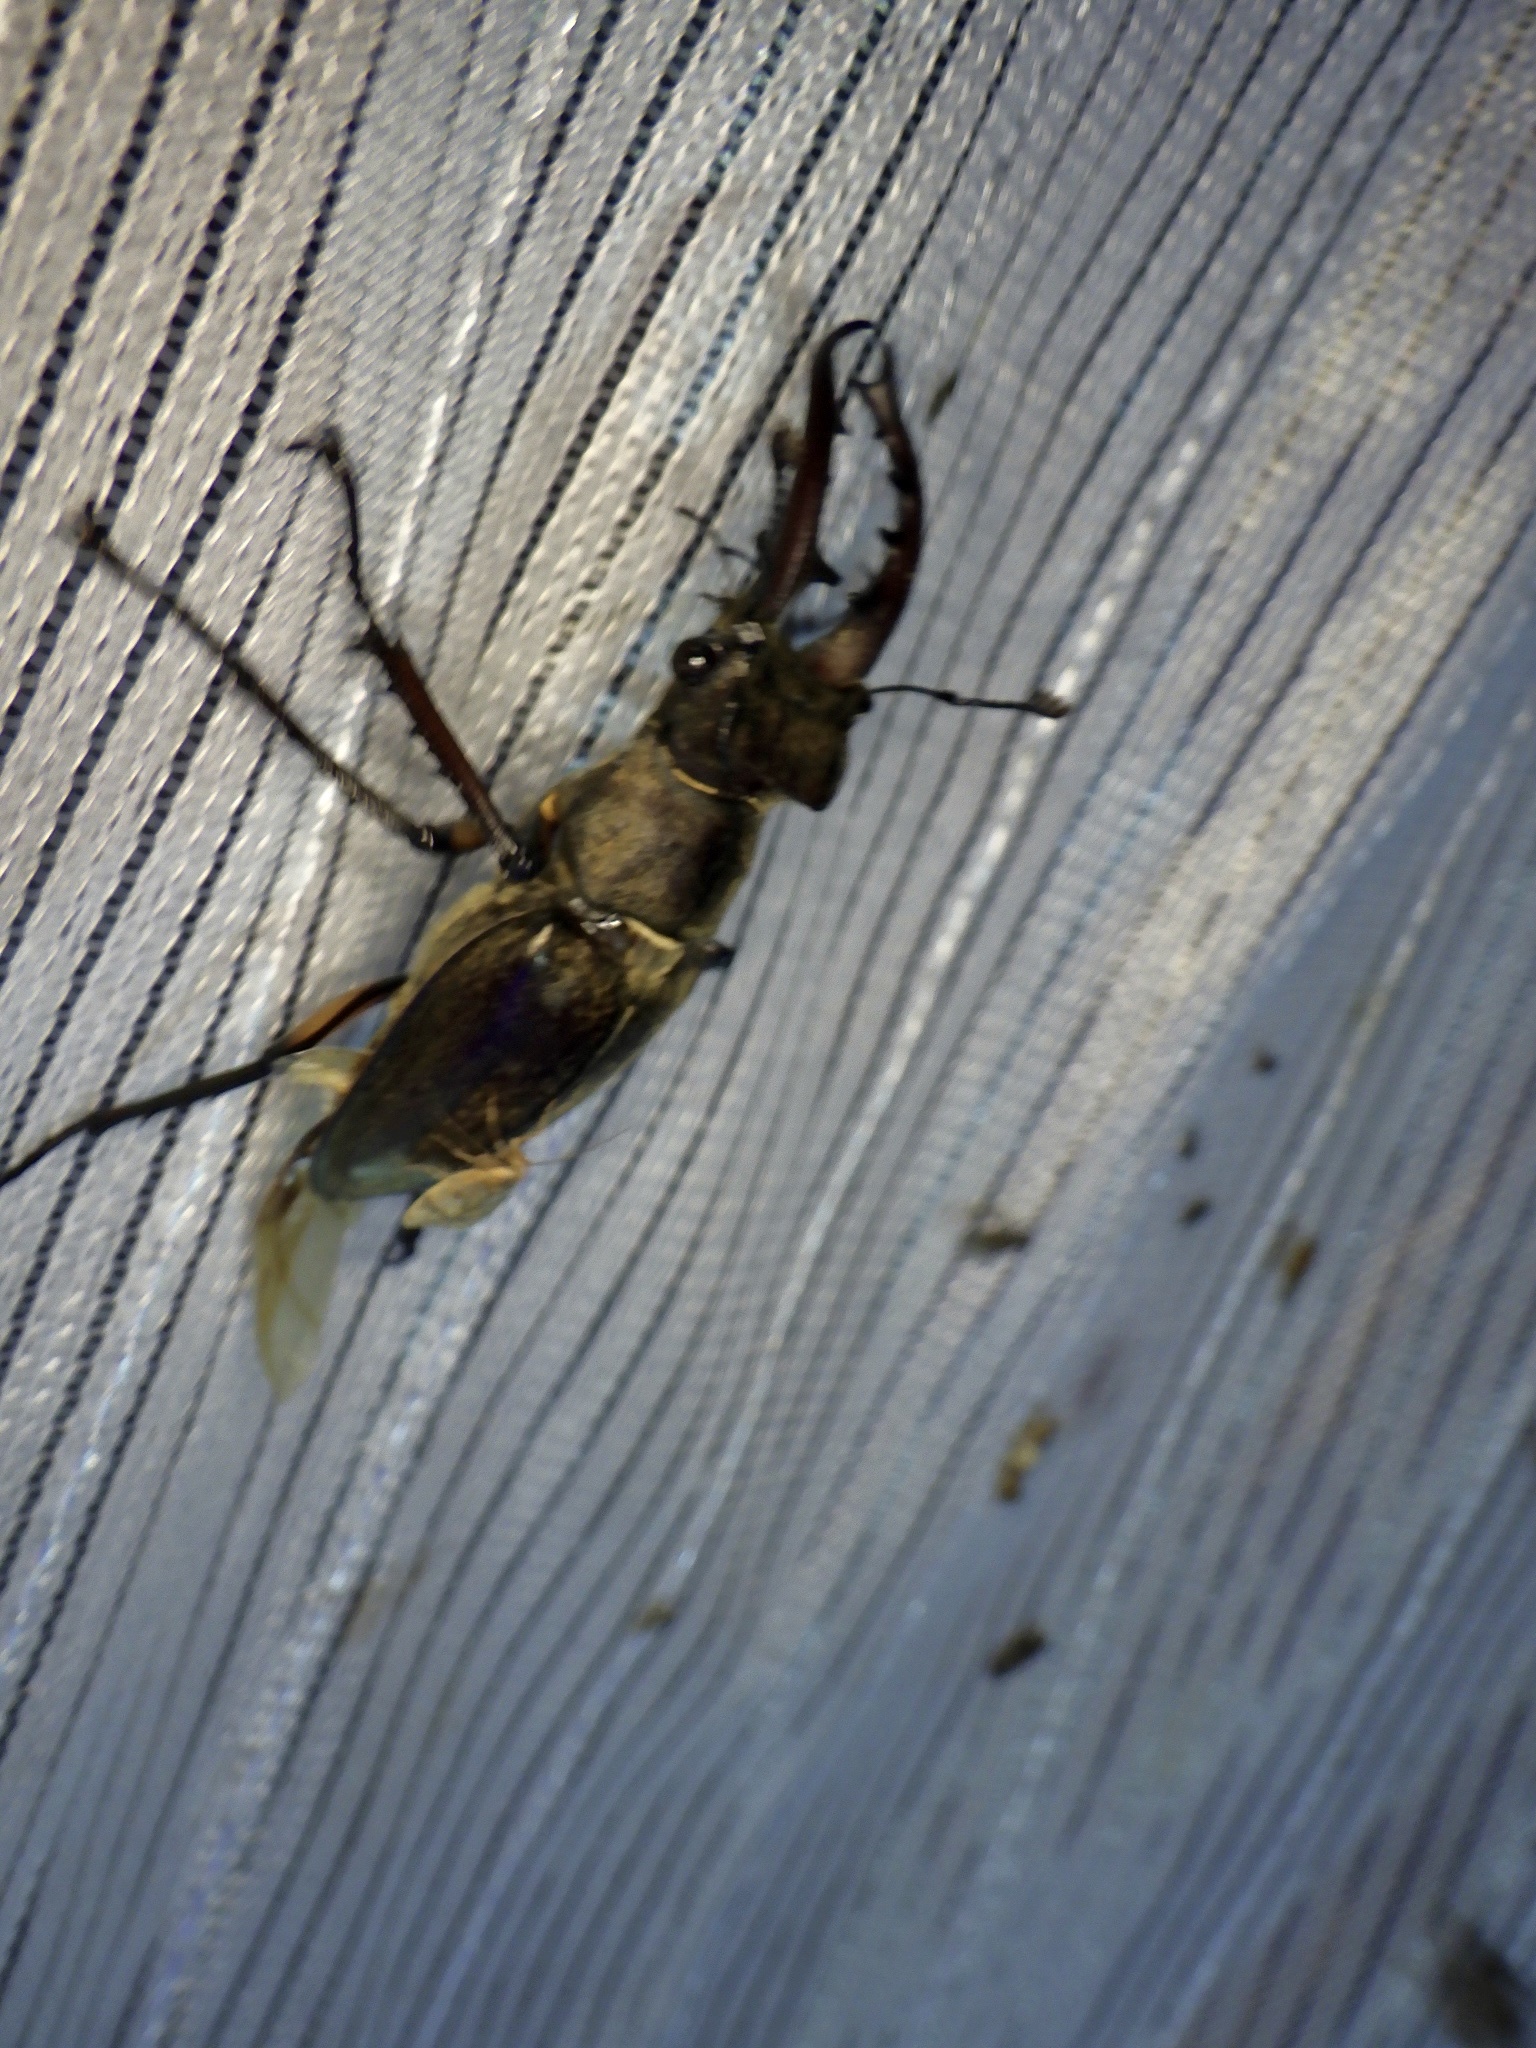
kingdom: Animalia
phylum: Arthropoda
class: Insecta
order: Coleoptera
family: Lucanidae
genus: Lucanus
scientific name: Lucanus maculifemoratus
